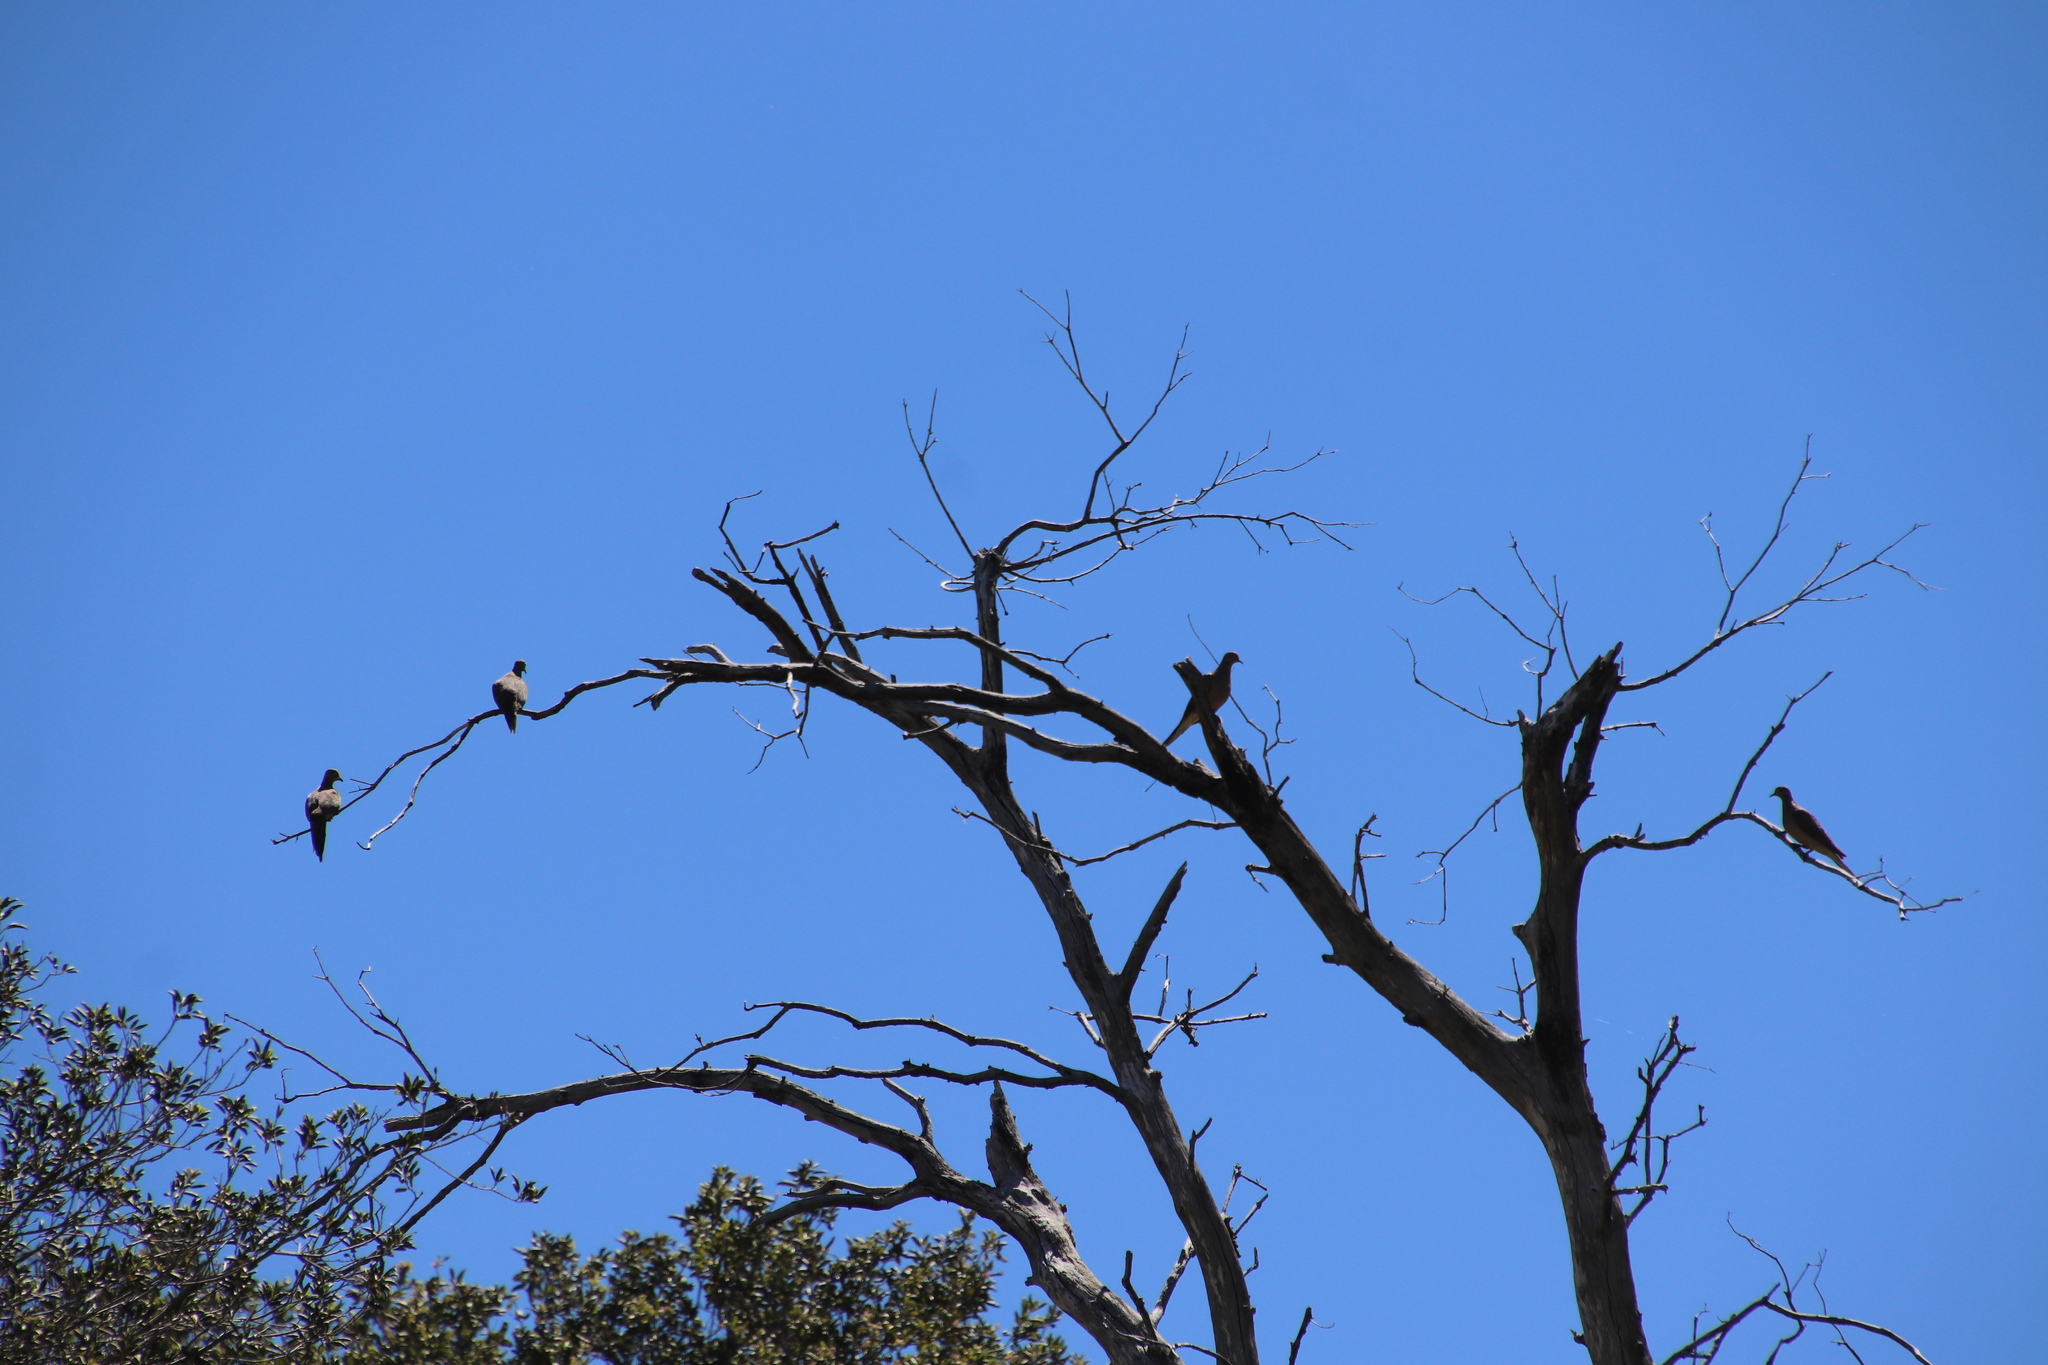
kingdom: Animalia
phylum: Chordata
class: Aves
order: Columbiformes
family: Columbidae
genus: Zenaida
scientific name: Zenaida macroura
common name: Mourning dove
